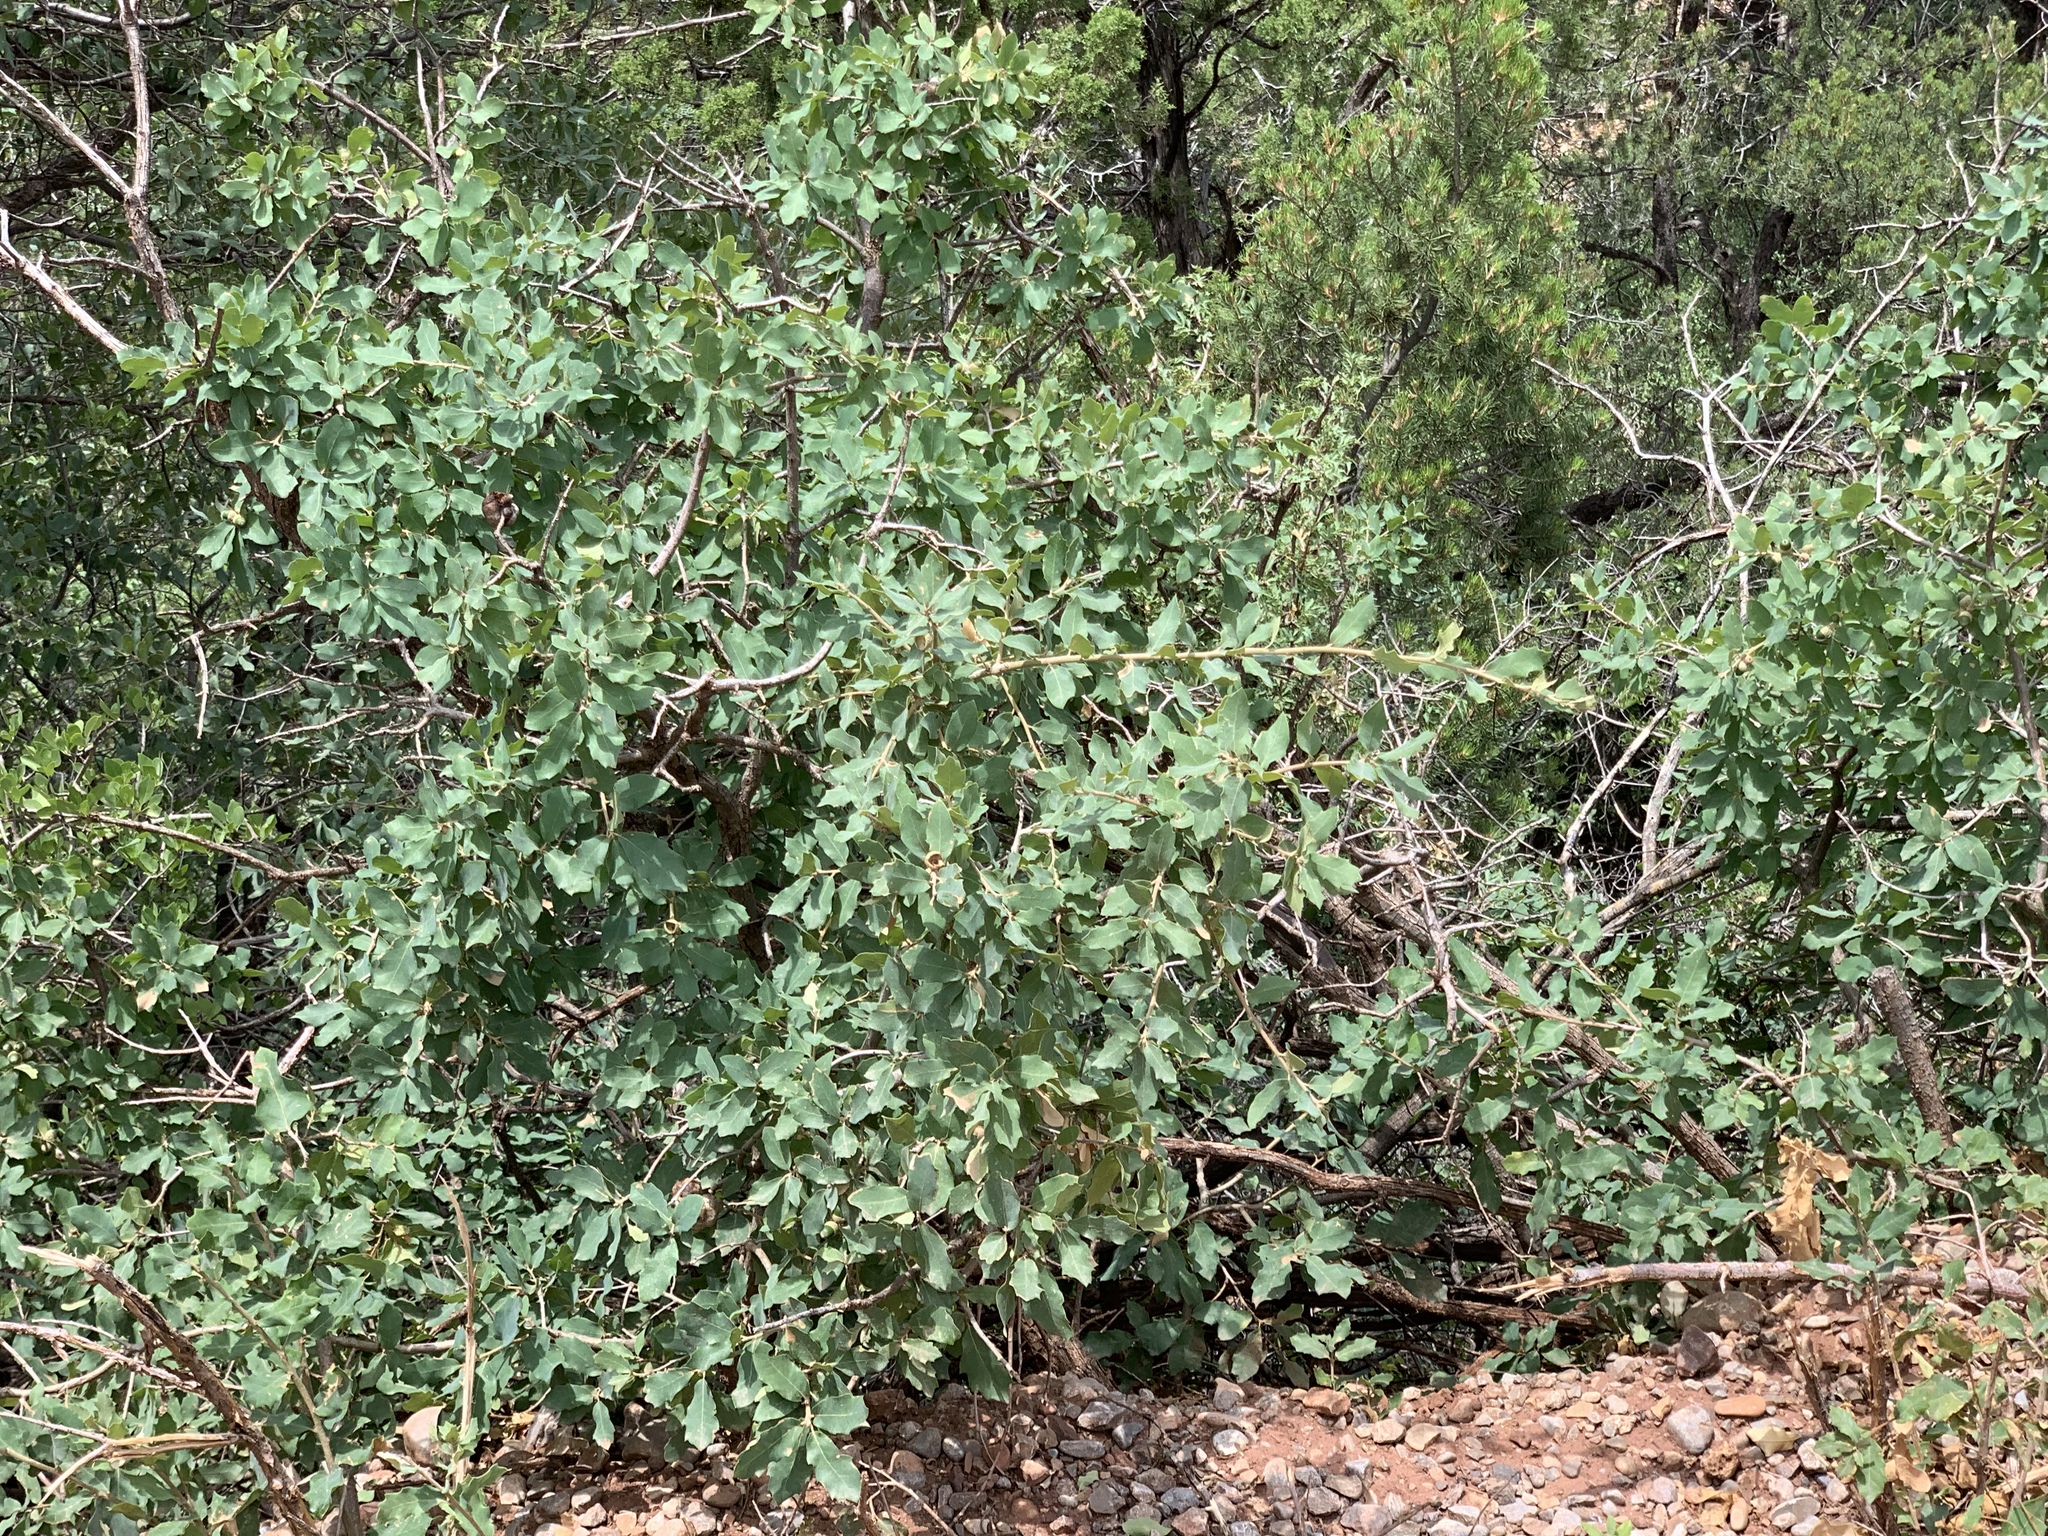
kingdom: Plantae
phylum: Tracheophyta
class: Magnoliopsida
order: Fagales
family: Fagaceae
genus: Quercus
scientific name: Quercus undulata
